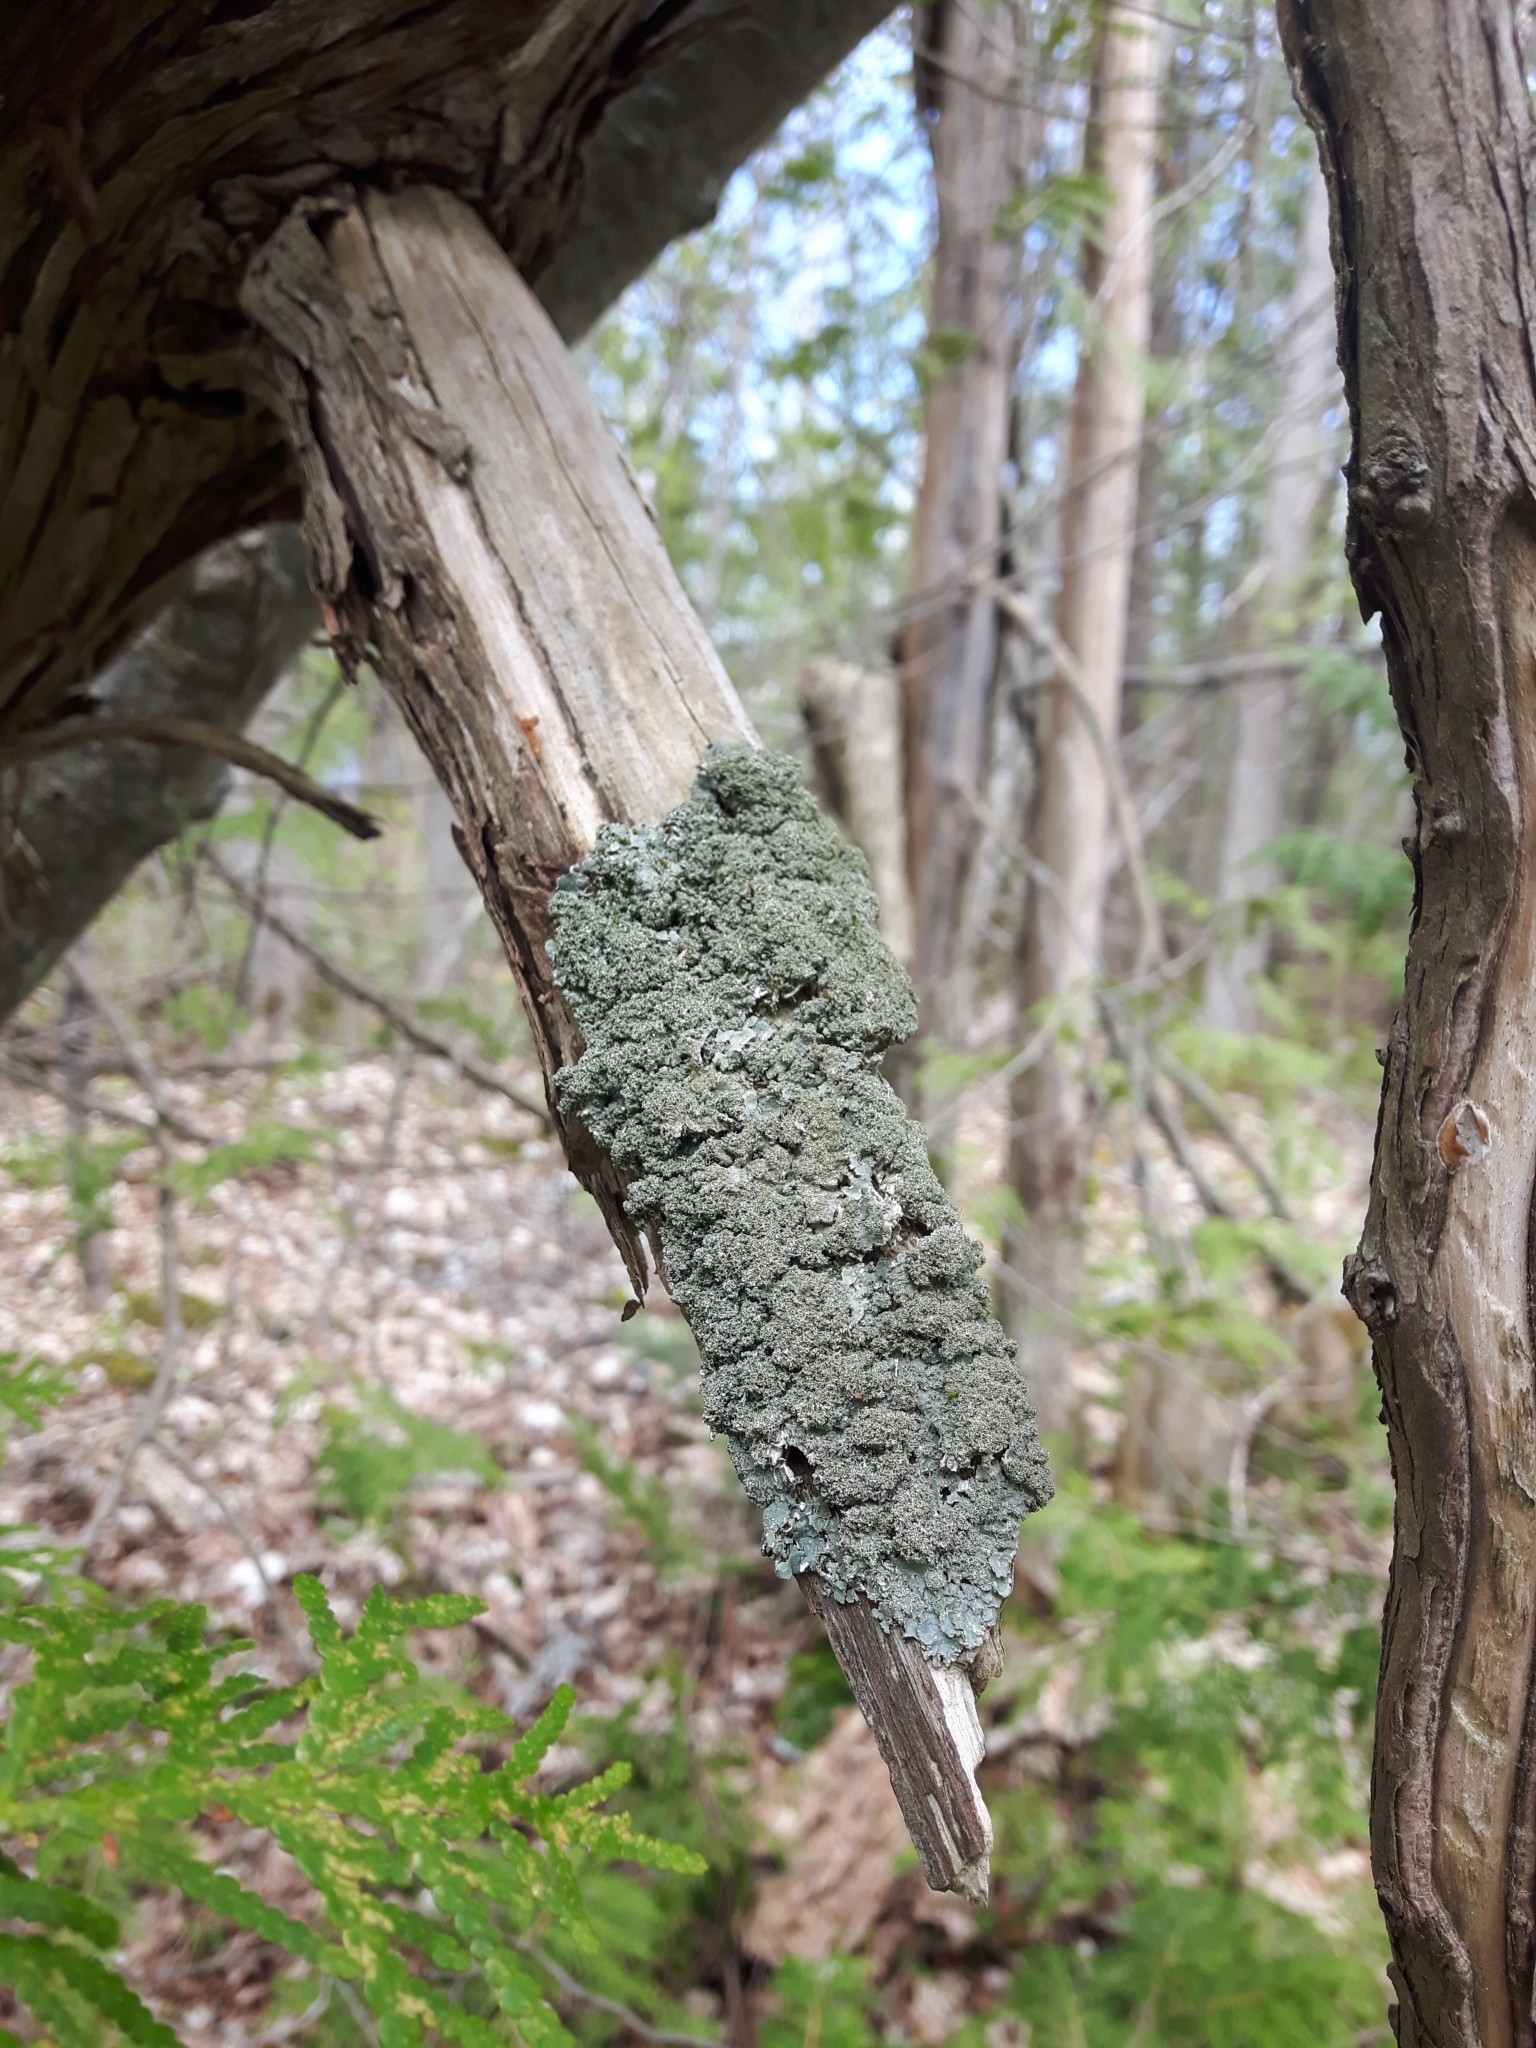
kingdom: Fungi
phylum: Ascomycota
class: Lecanoromycetes
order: Lecanorales
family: Parmeliaceae
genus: Punctelia
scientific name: Punctelia rudecta
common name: Rough speckled shield lichen
